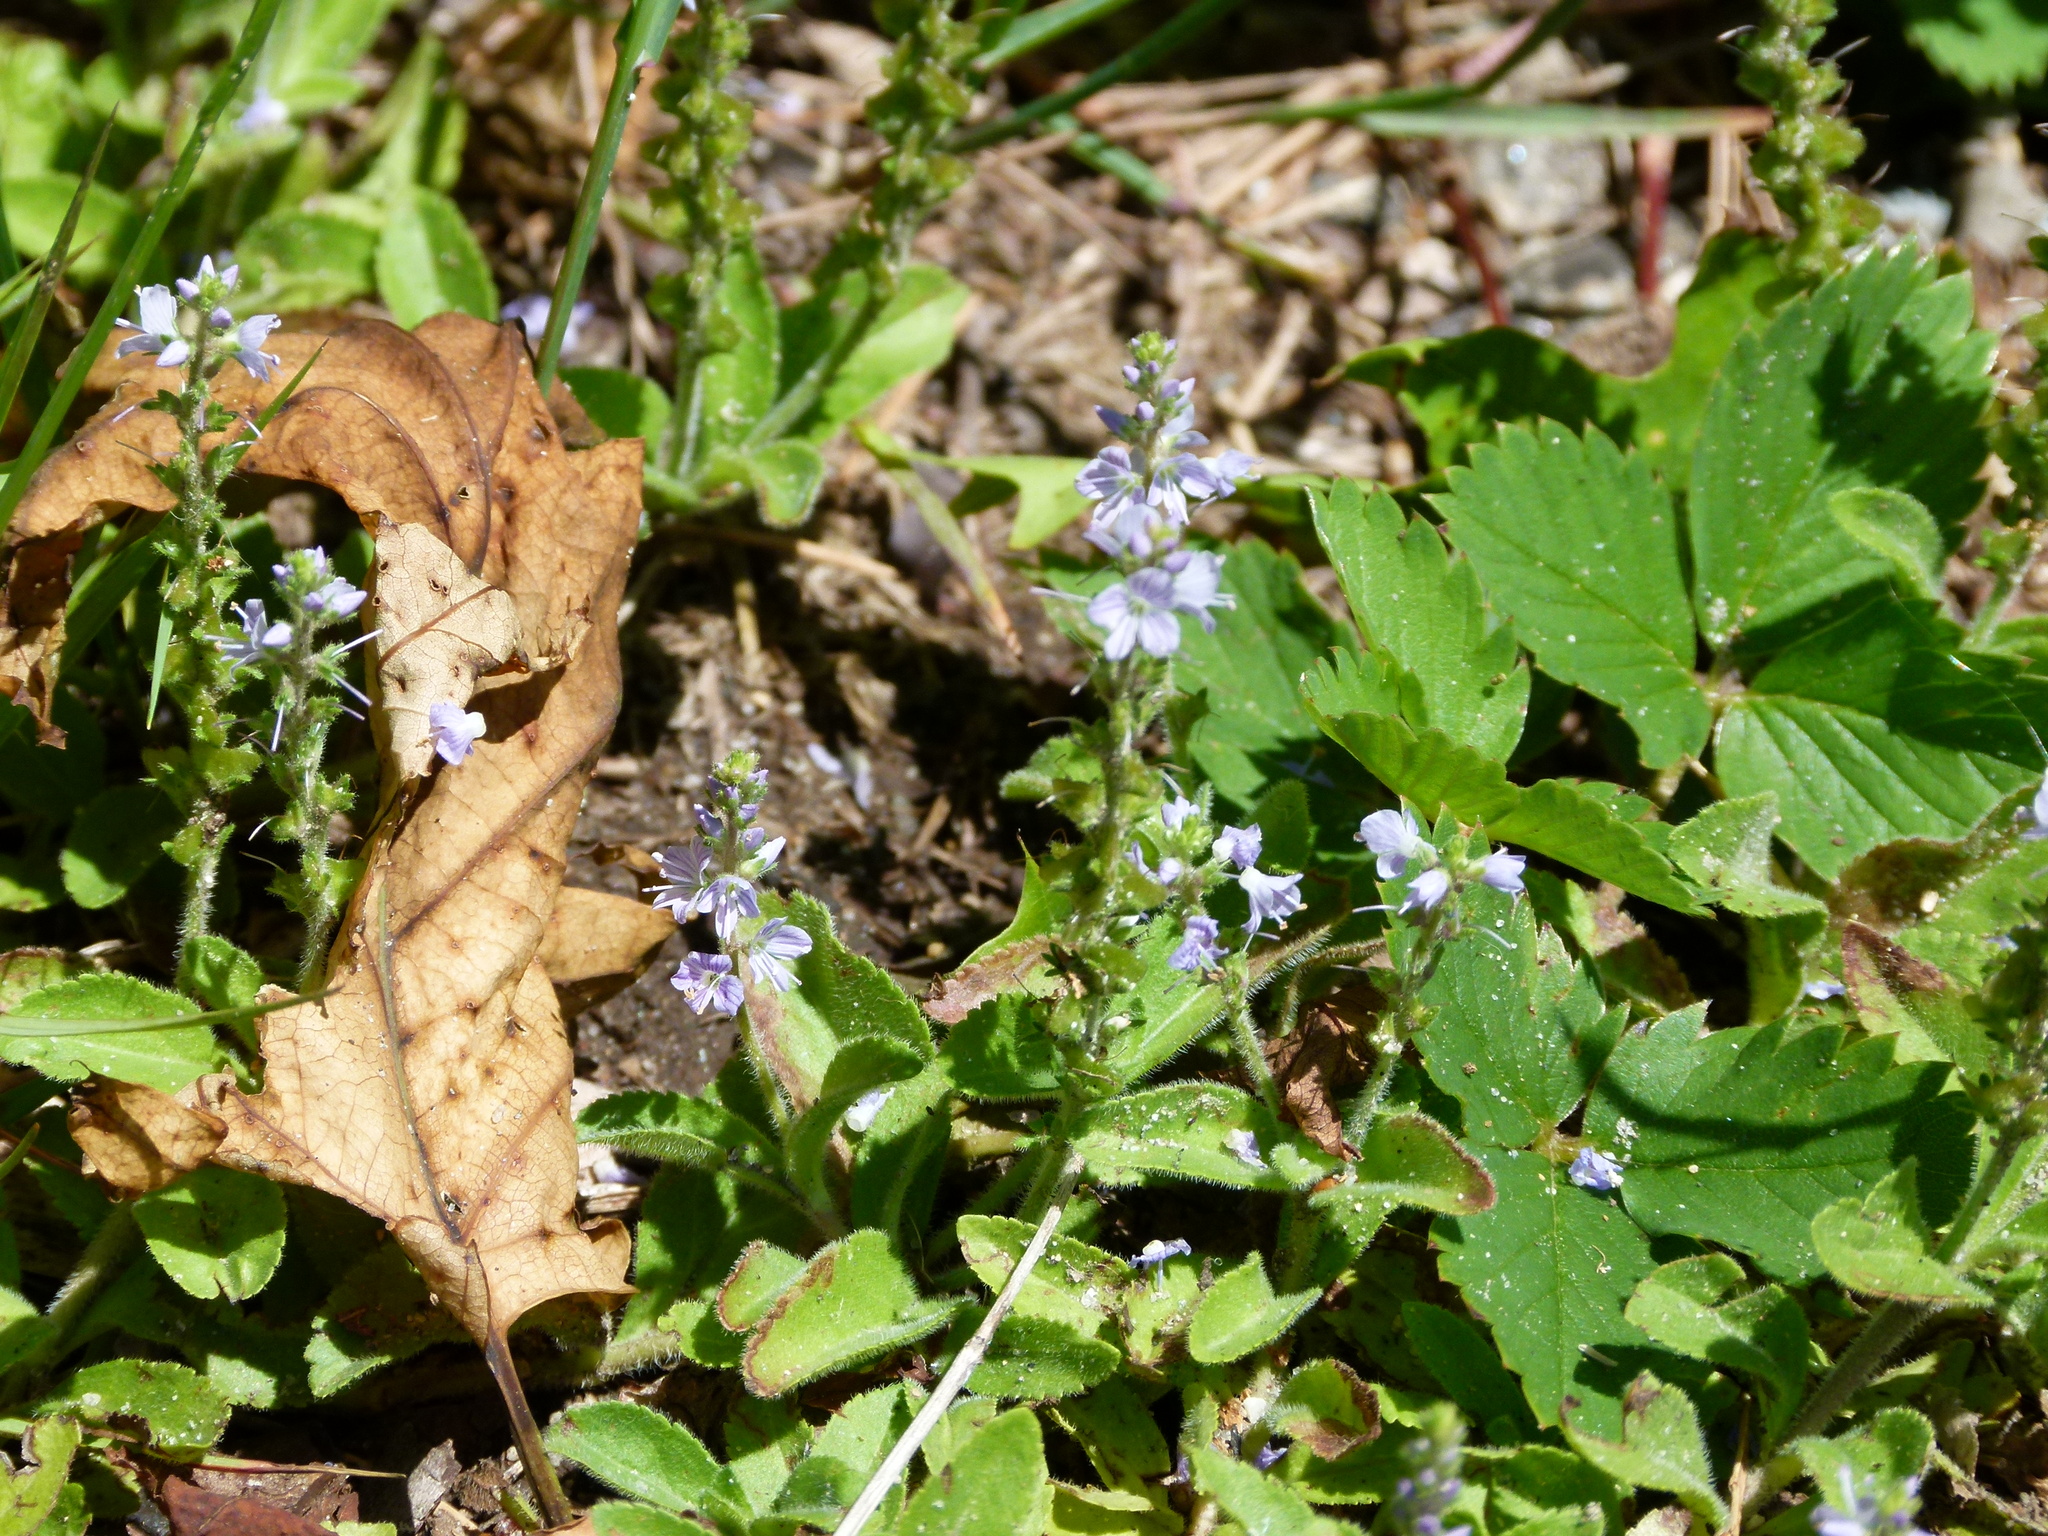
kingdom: Plantae
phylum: Tracheophyta
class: Magnoliopsida
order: Lamiales
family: Plantaginaceae
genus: Veronica
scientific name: Veronica officinalis
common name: Common speedwell
